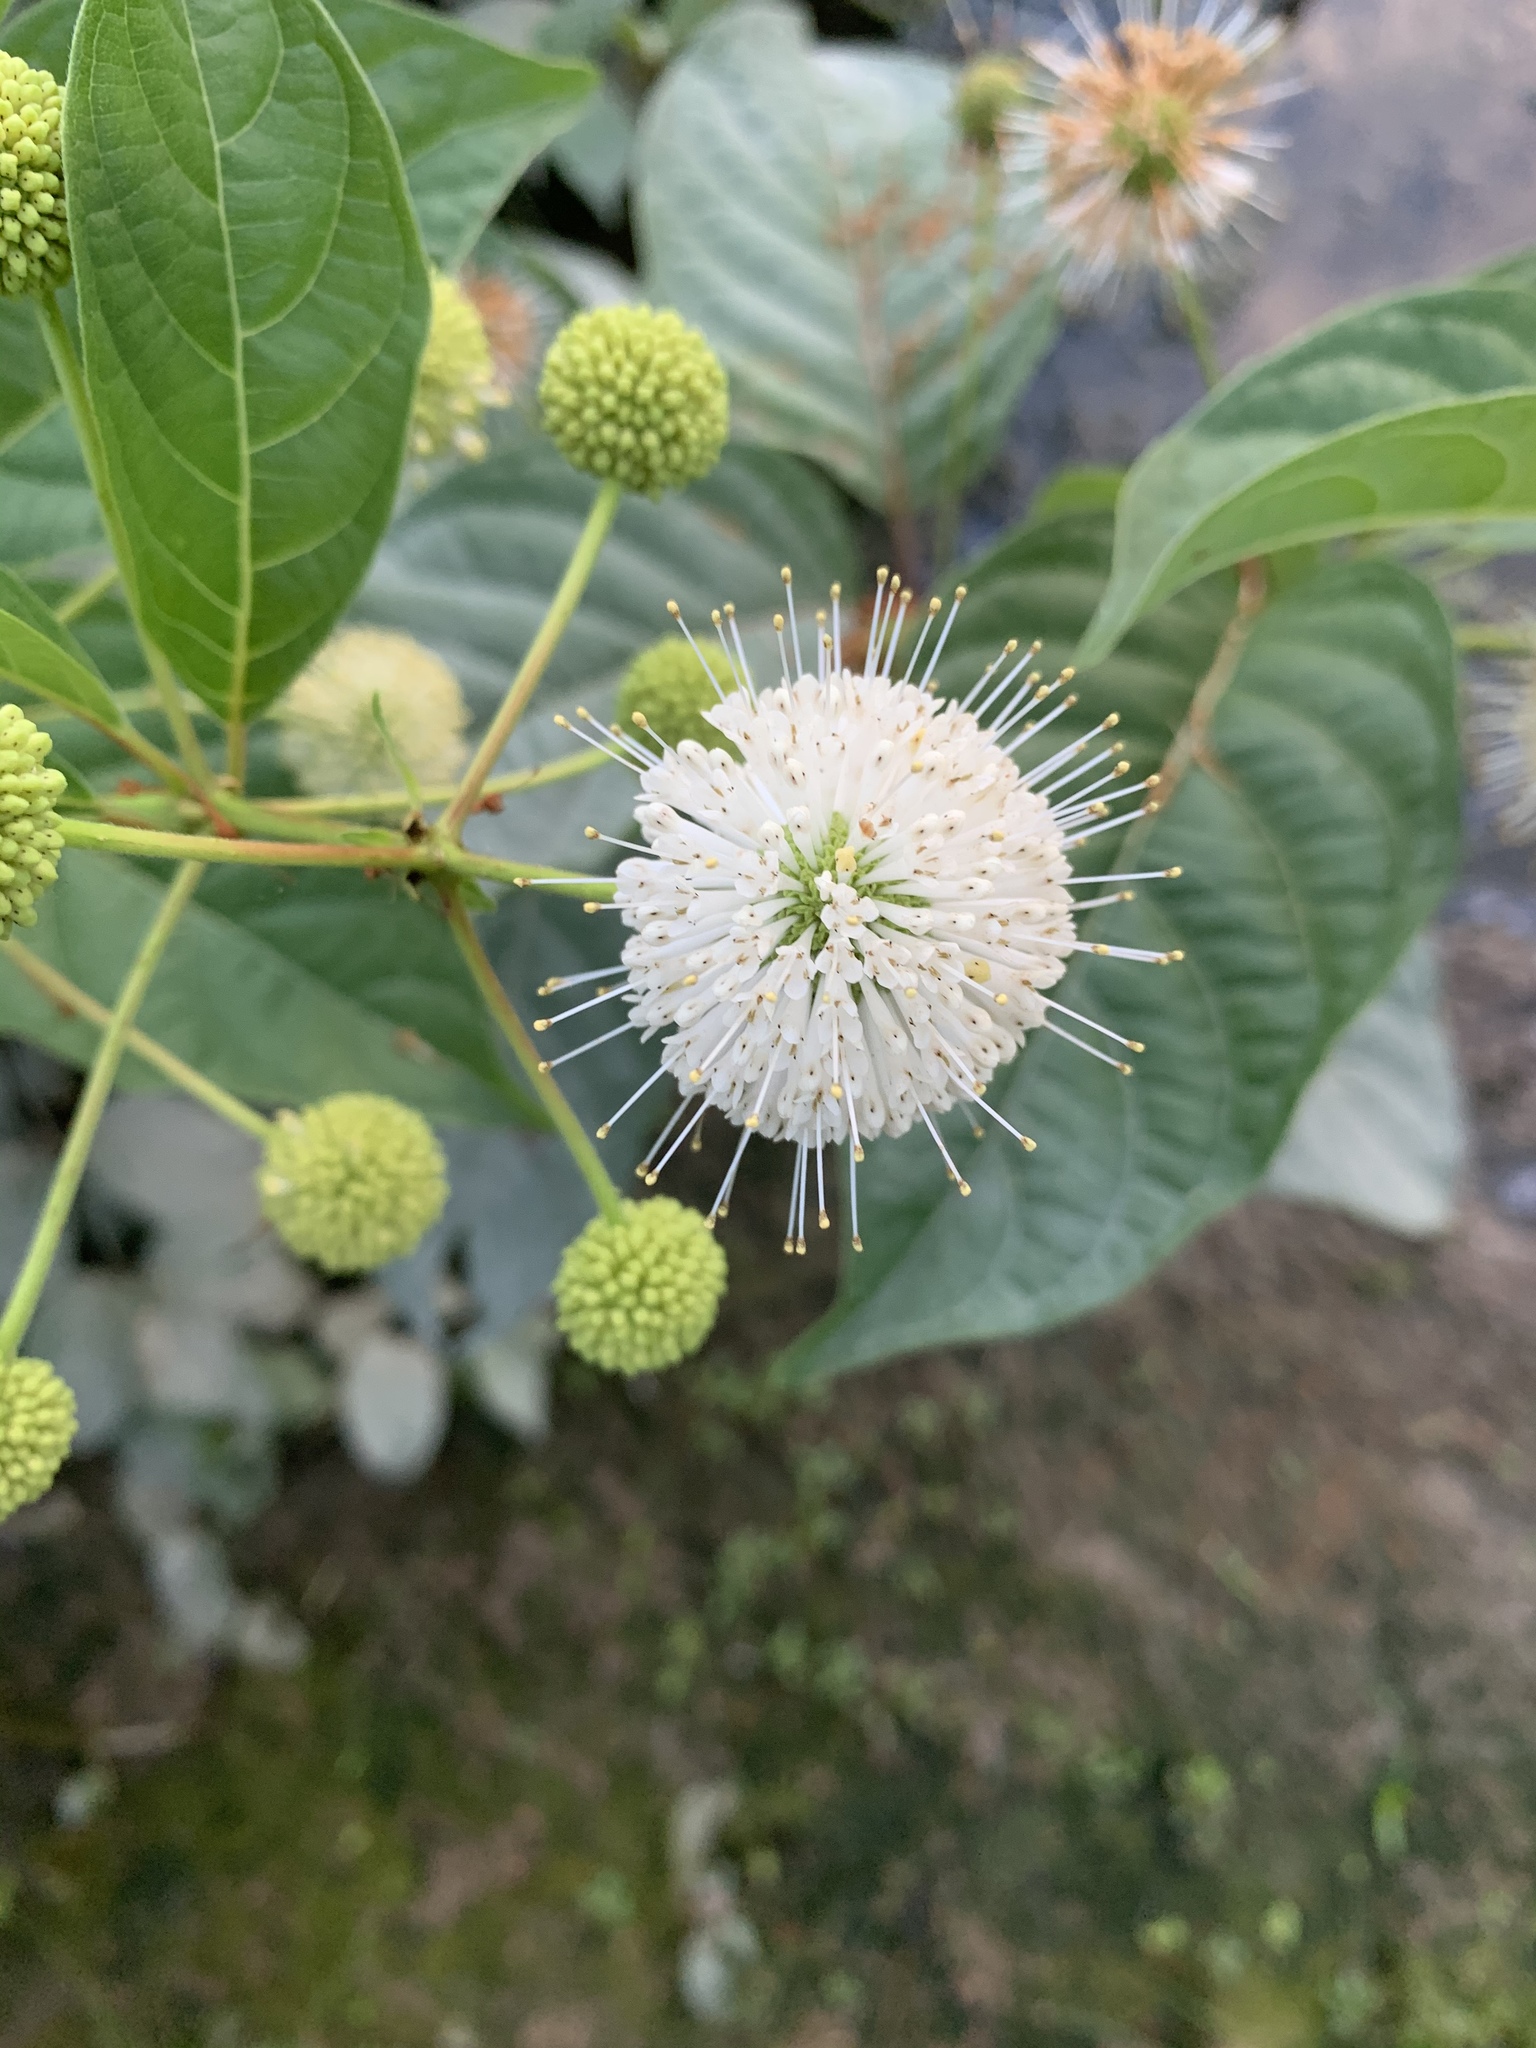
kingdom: Plantae
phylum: Tracheophyta
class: Magnoliopsida
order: Gentianales
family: Rubiaceae
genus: Cephalanthus
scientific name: Cephalanthus occidentalis
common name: Button-willow
